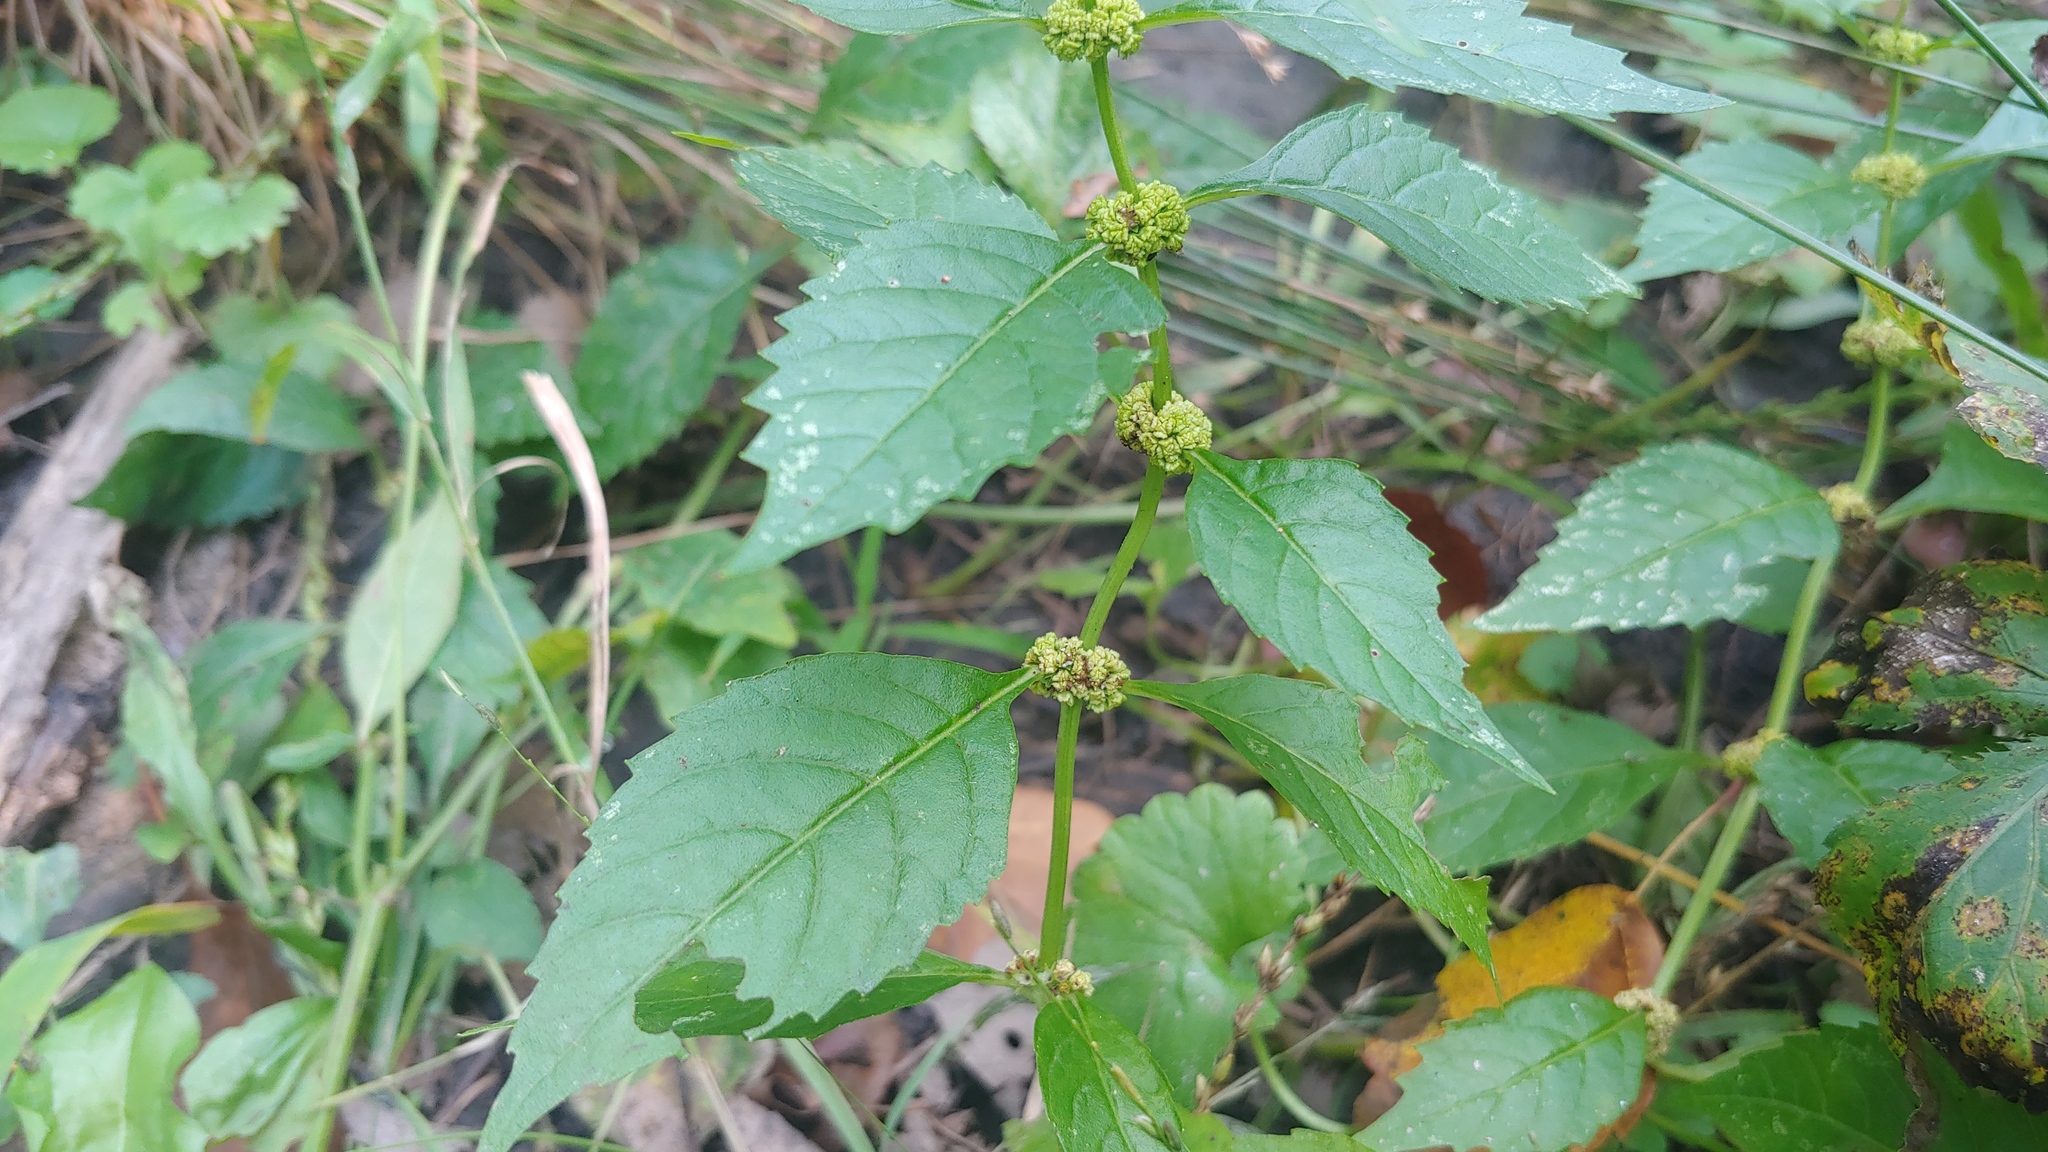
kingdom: Plantae
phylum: Tracheophyta
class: Magnoliopsida
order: Lamiales
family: Lamiaceae
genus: Lycopus
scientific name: Lycopus virginicus
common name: Bugleweed
